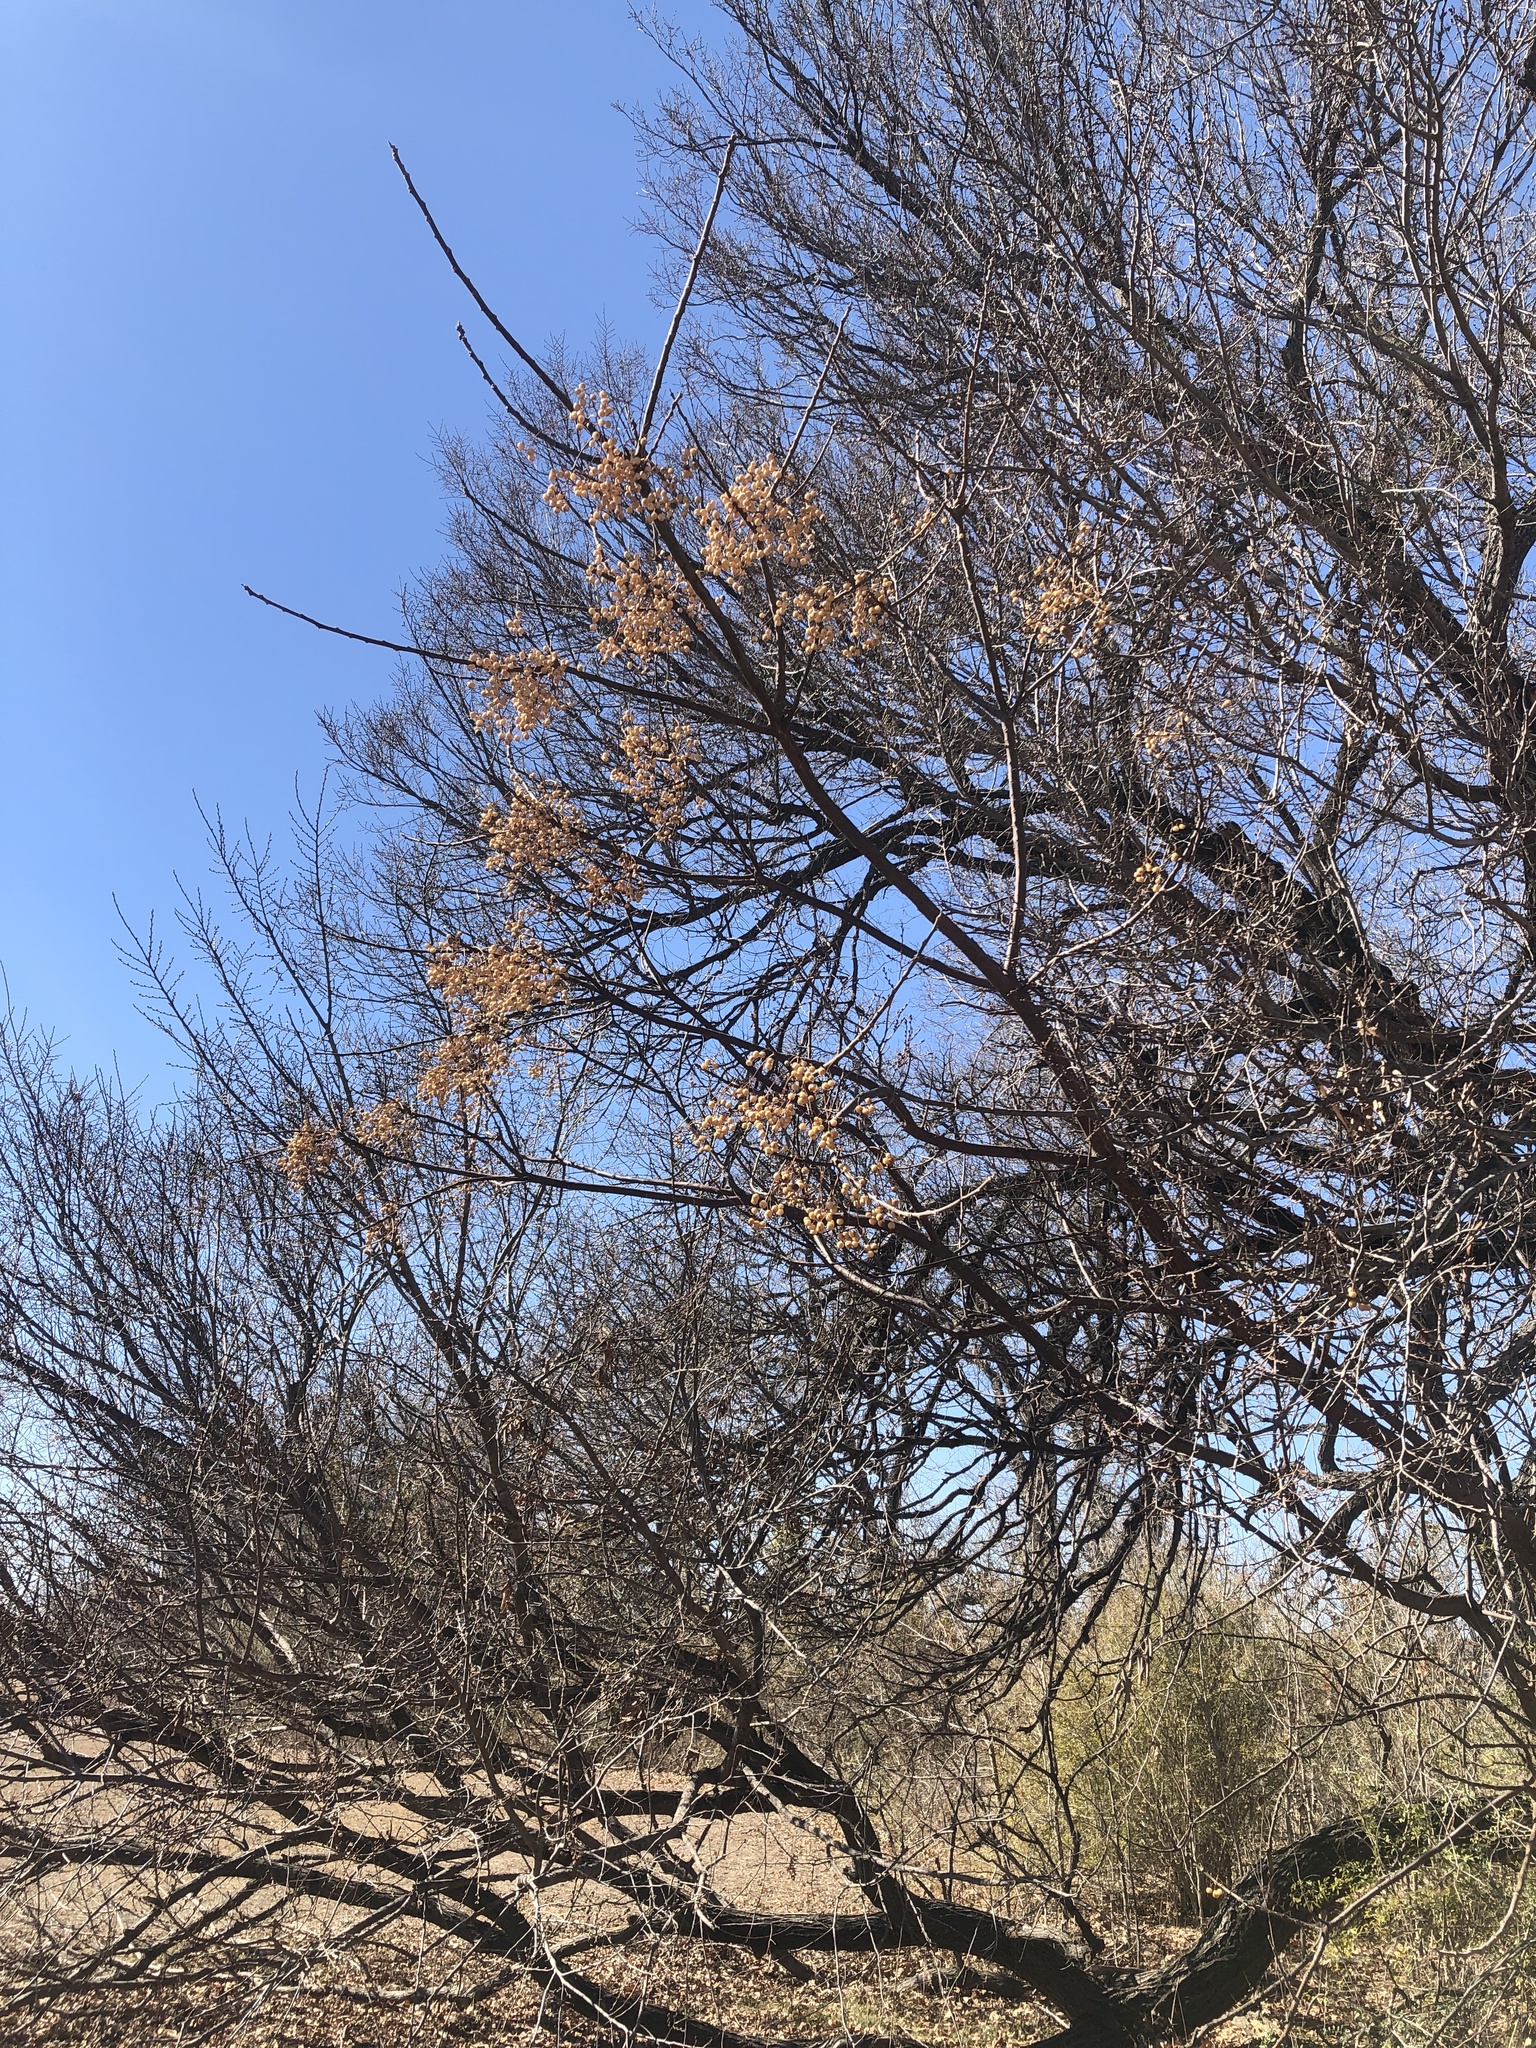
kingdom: Plantae
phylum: Tracheophyta
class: Magnoliopsida
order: Sapindales
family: Meliaceae
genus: Melia
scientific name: Melia azedarach
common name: Chinaberrytree
